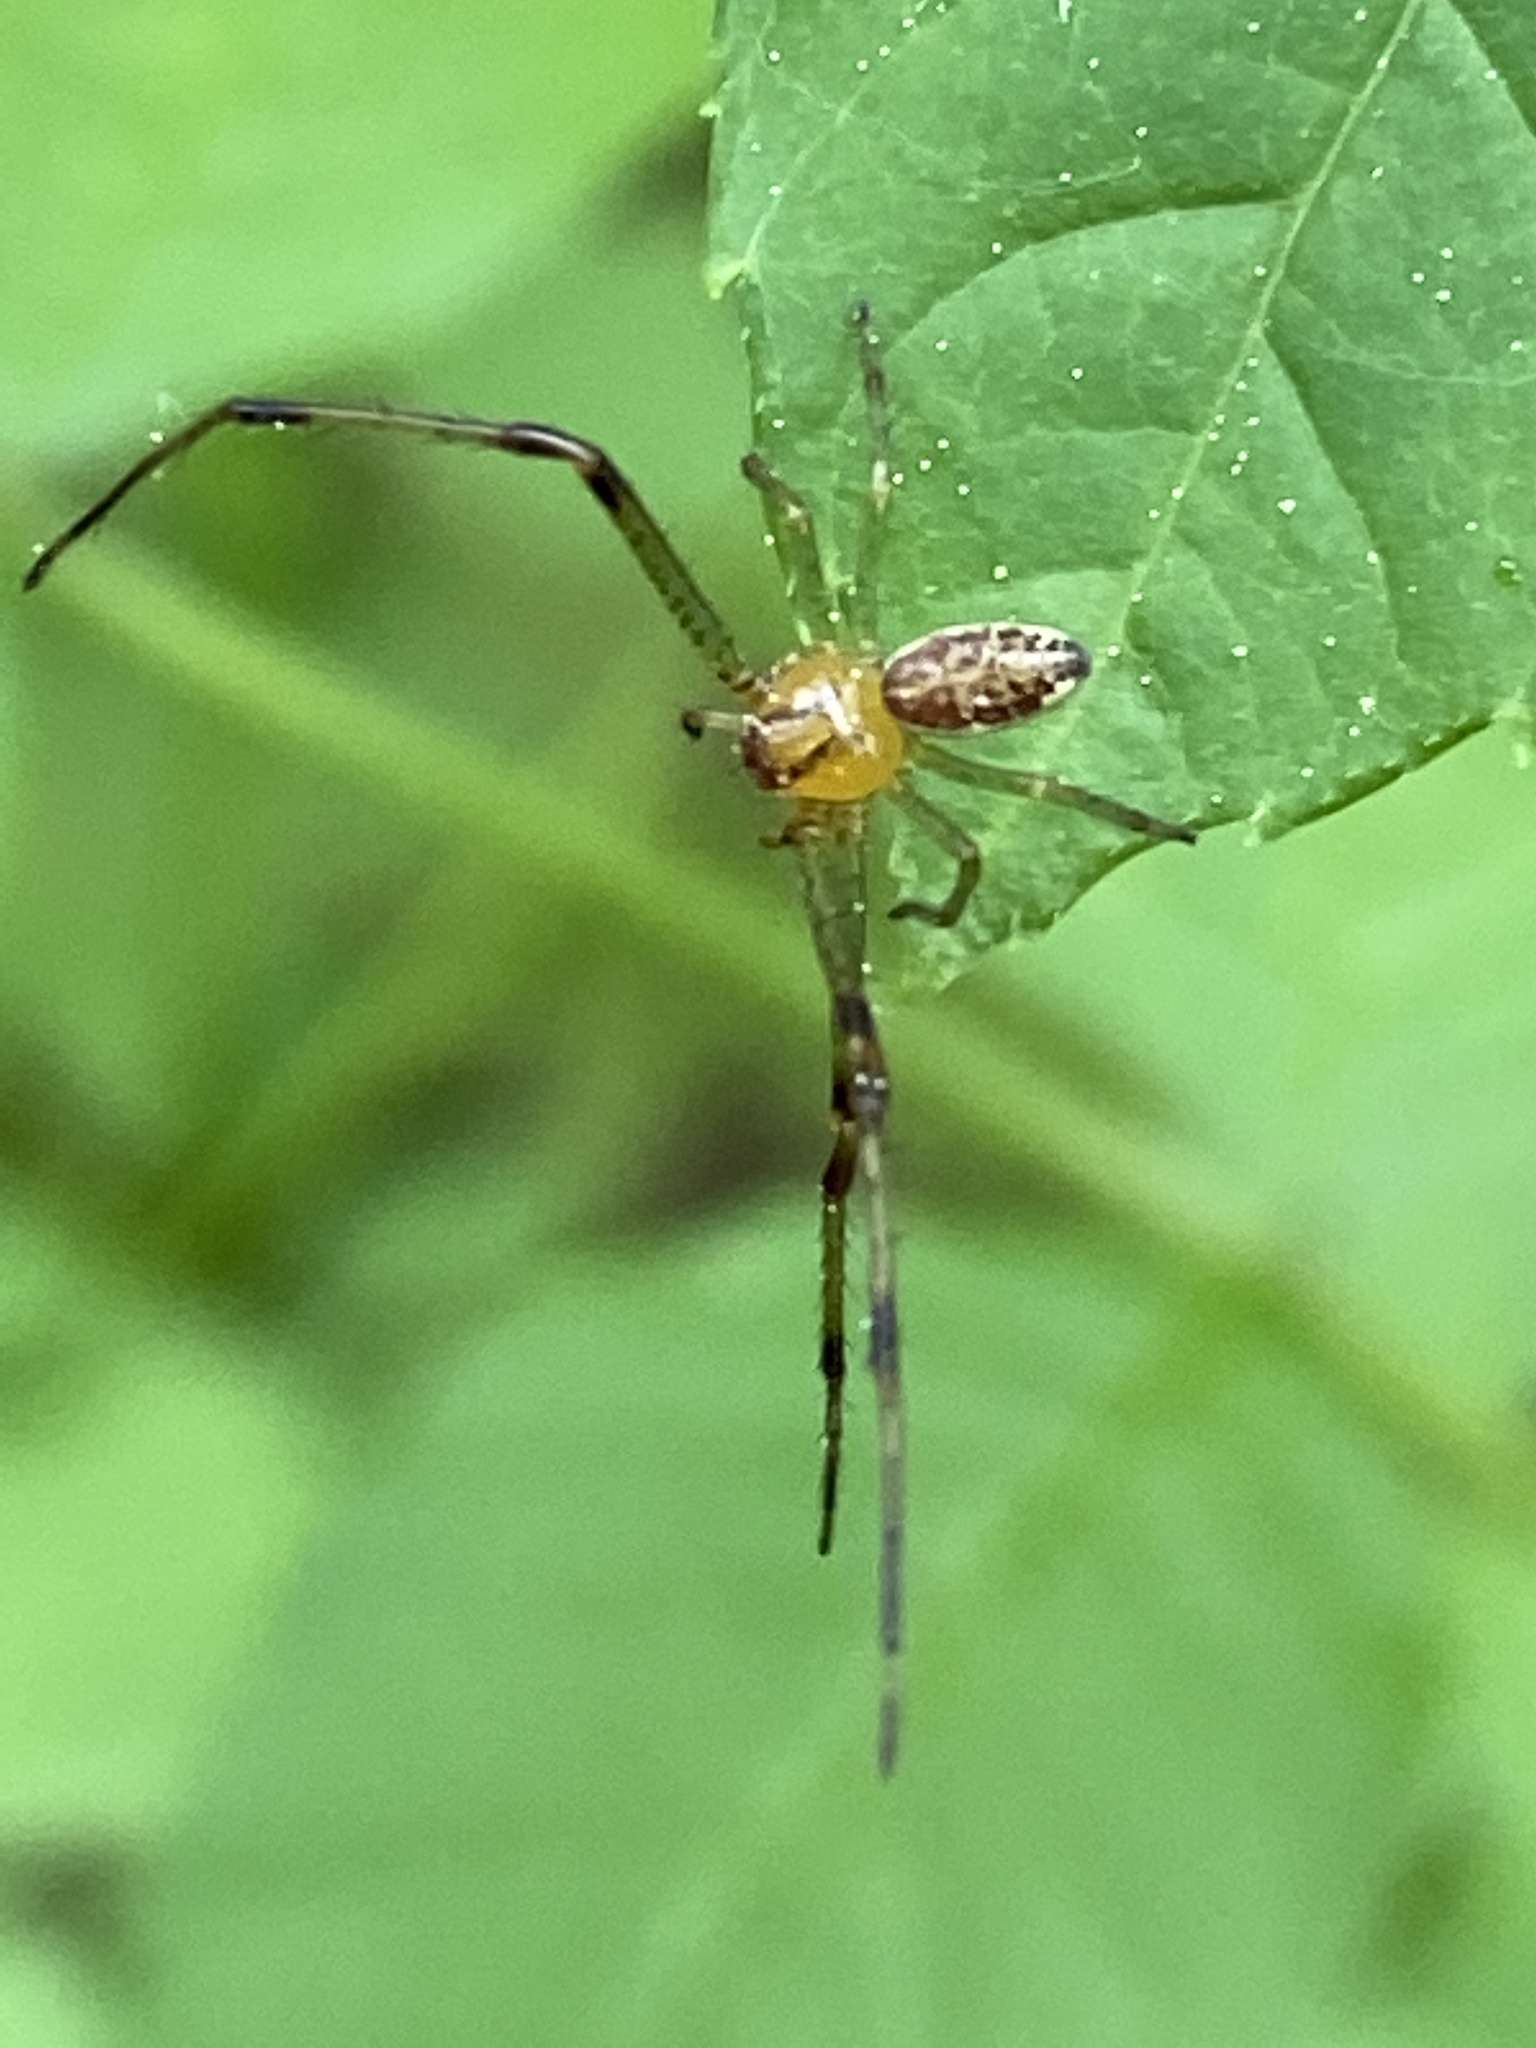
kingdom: Animalia
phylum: Arthropoda
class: Arachnida
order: Araneae
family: Thomisidae
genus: Diaea
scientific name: Diaea dorsata
